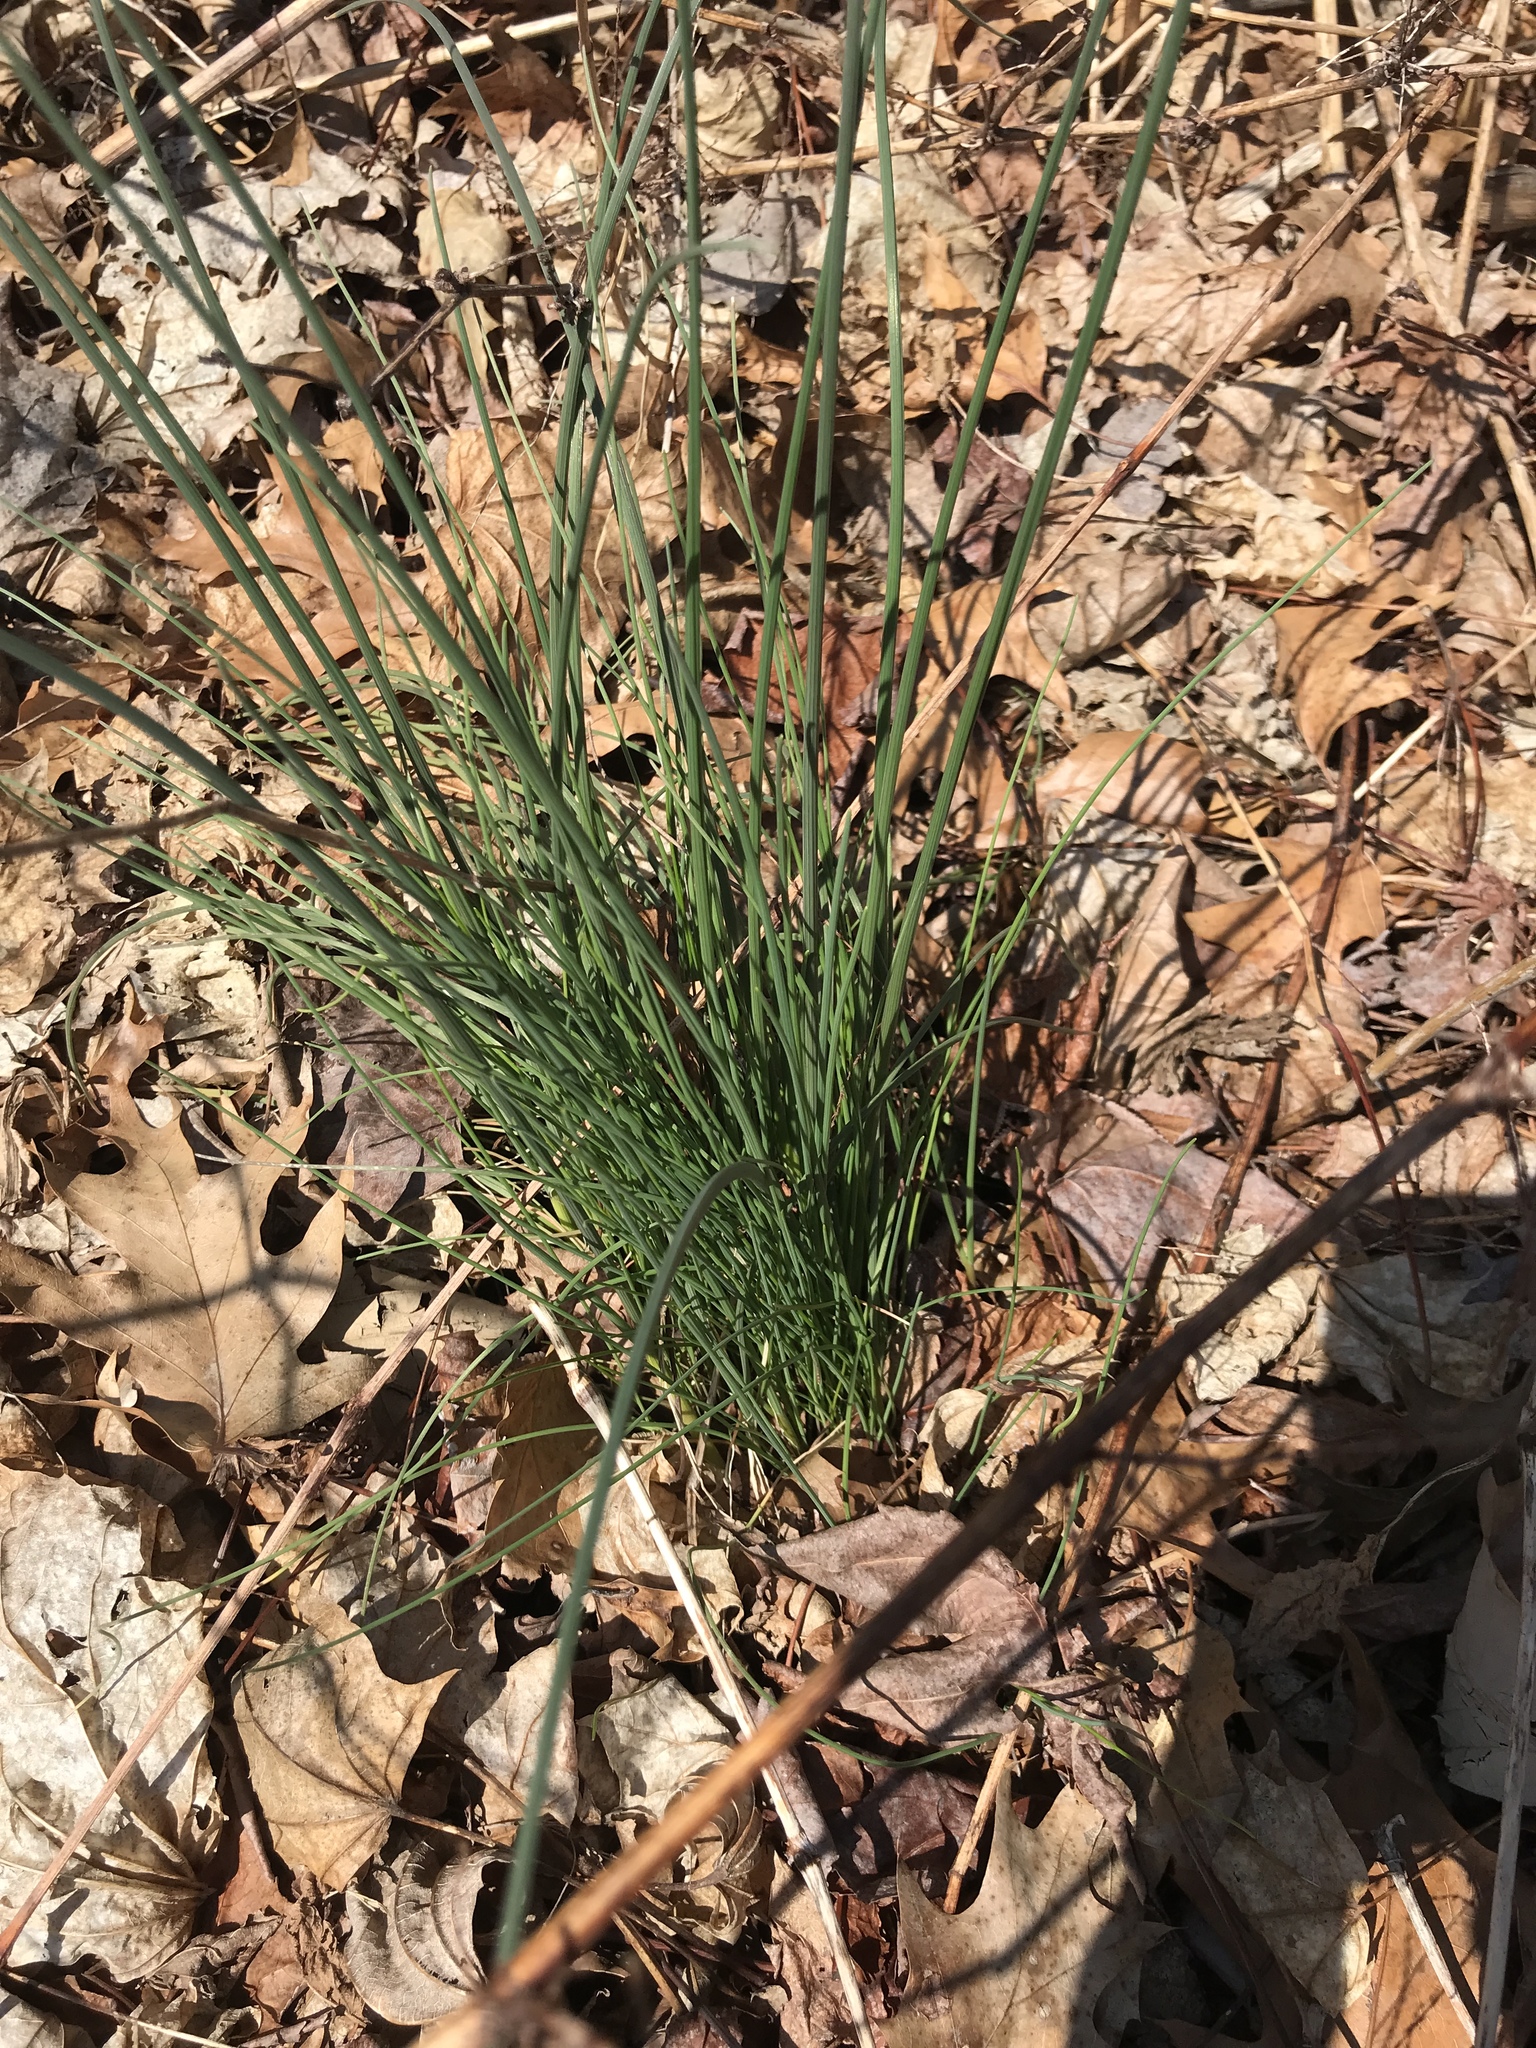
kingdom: Plantae
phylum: Tracheophyta
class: Liliopsida
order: Asparagales
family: Amaryllidaceae
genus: Allium
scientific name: Allium vineale
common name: Crow garlic
